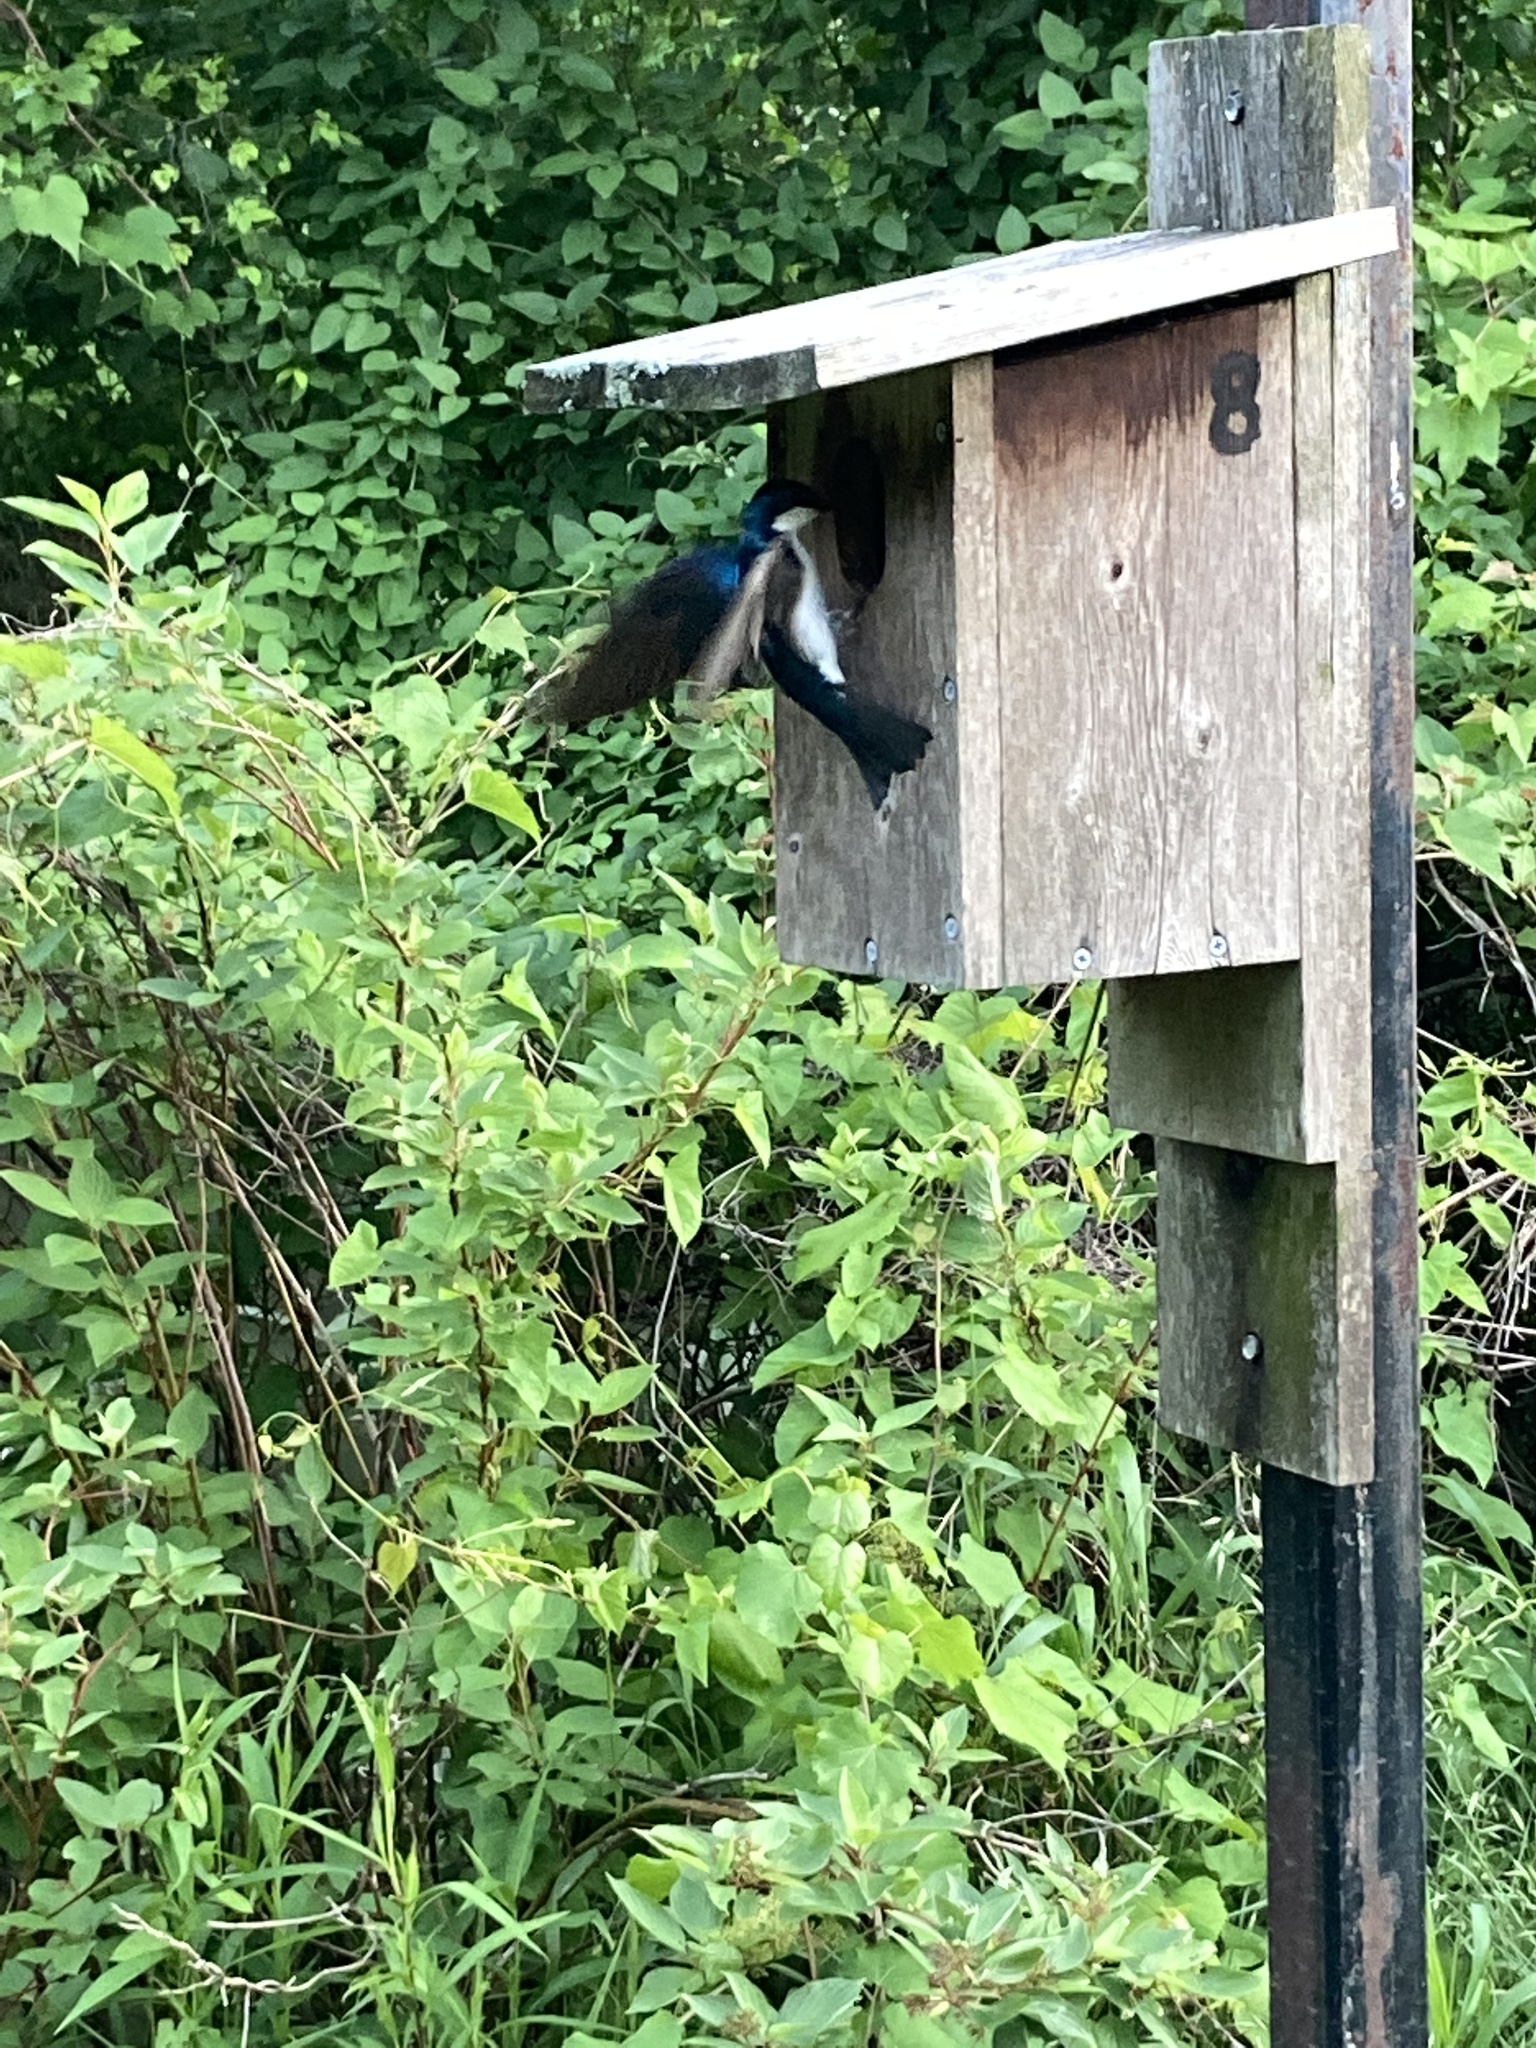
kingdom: Animalia
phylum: Chordata
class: Aves
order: Passeriformes
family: Hirundinidae
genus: Tachycineta
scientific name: Tachycineta bicolor
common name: Tree swallow
